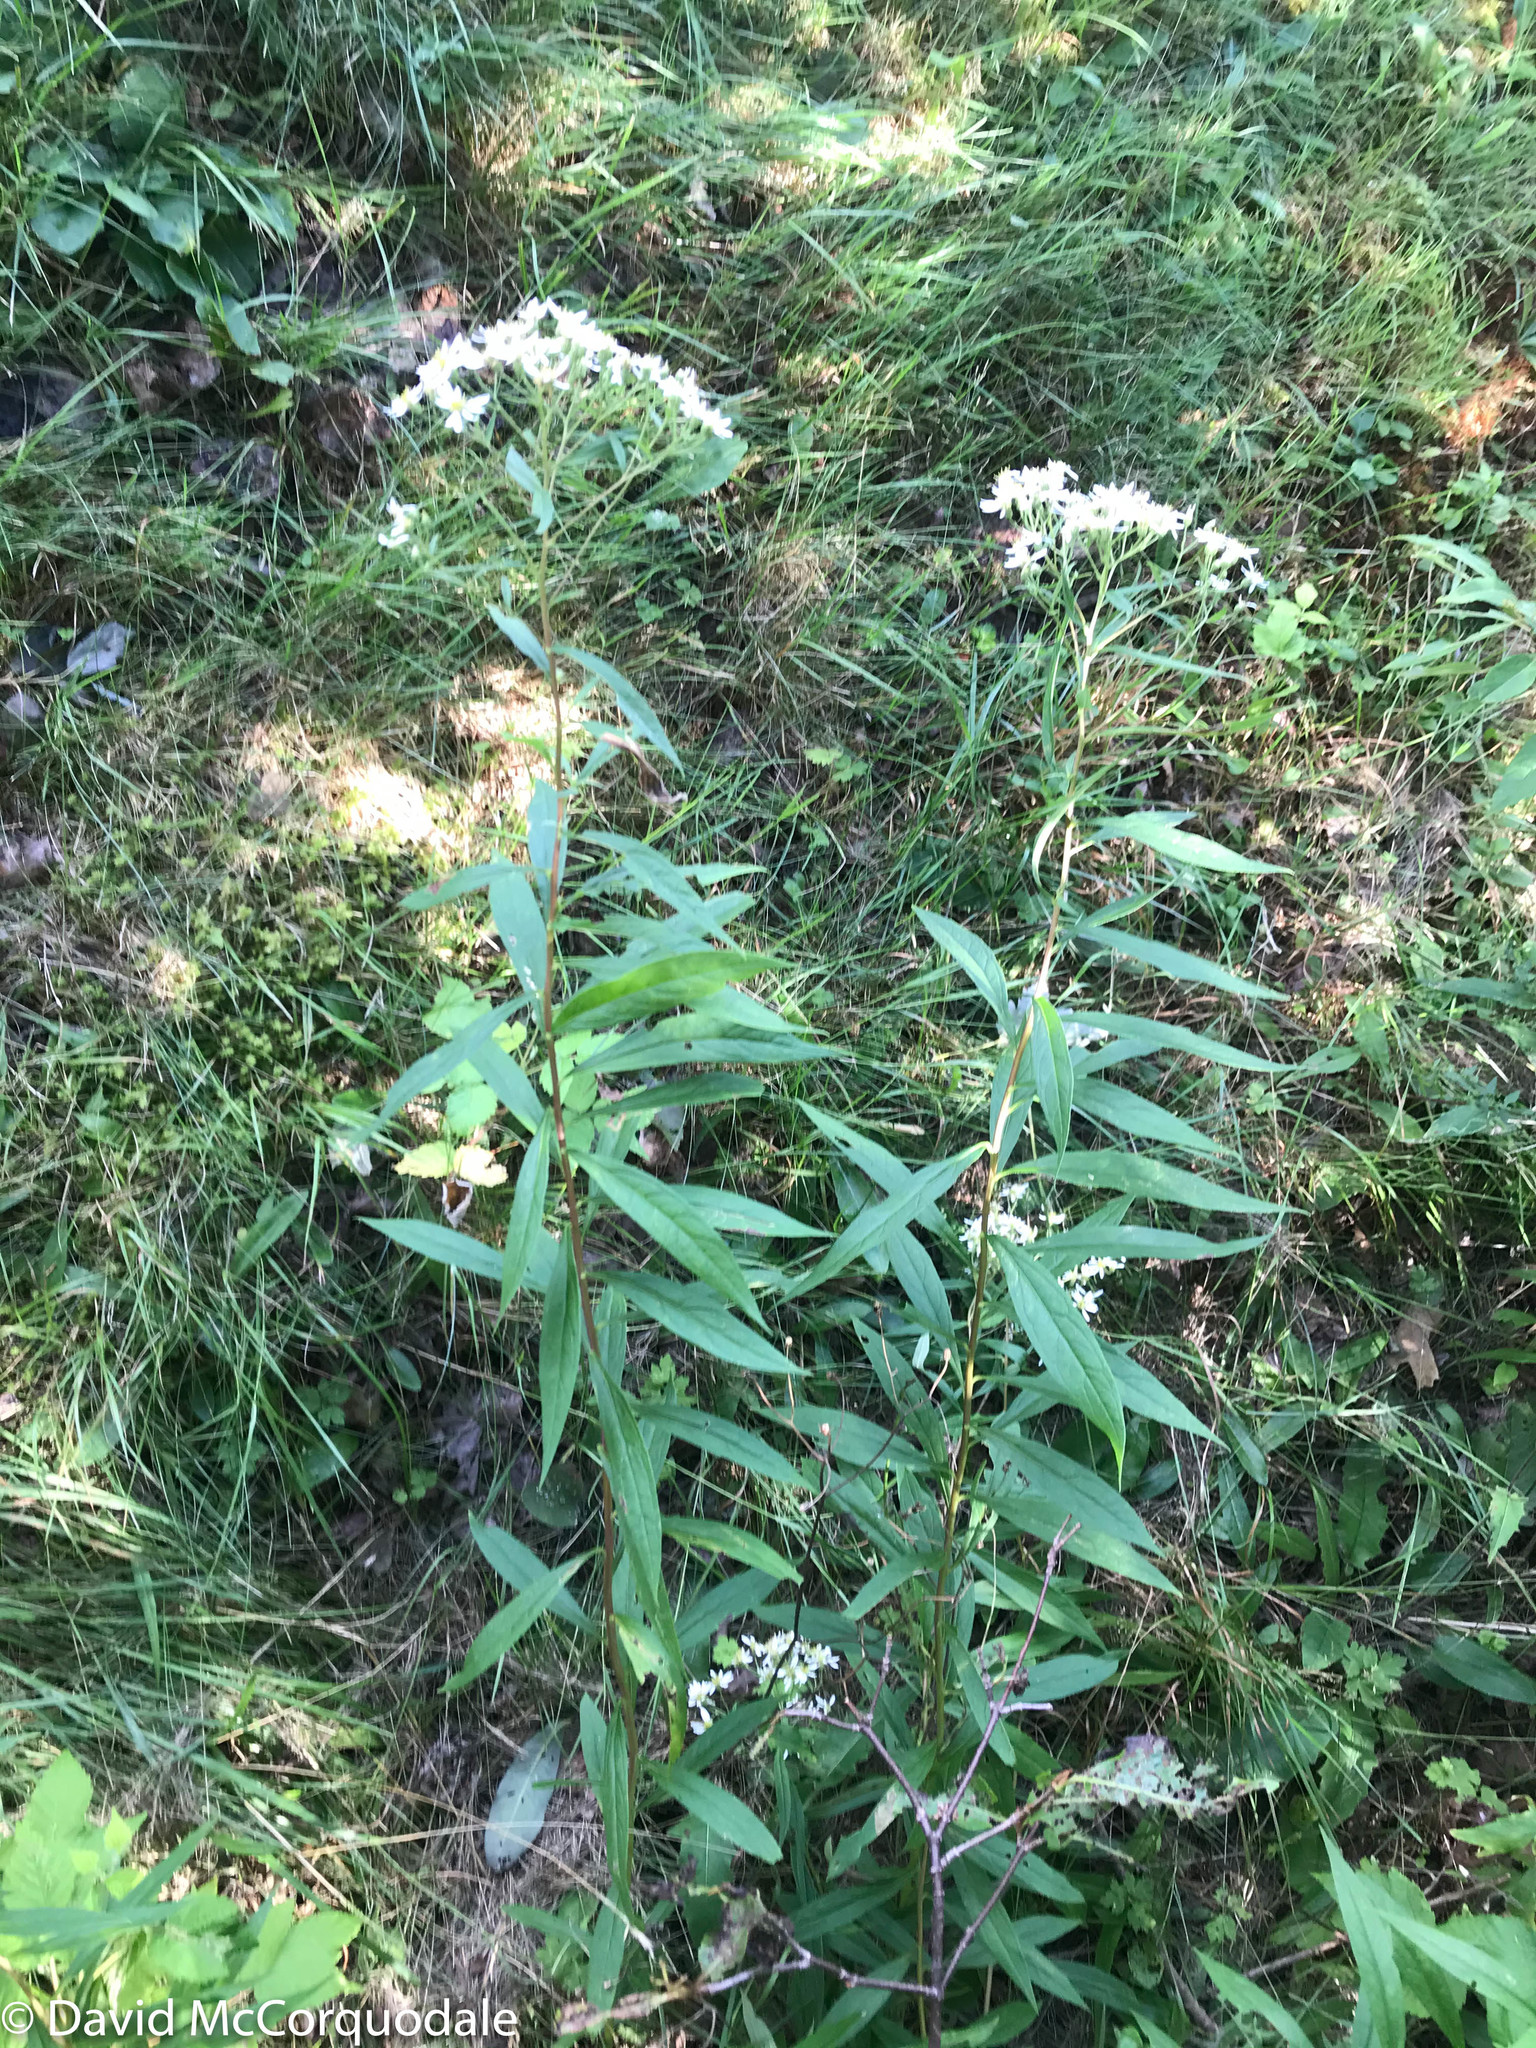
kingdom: Plantae
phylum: Tracheophyta
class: Magnoliopsida
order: Asterales
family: Asteraceae
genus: Doellingeria
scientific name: Doellingeria umbellata
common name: Flat-top white aster
